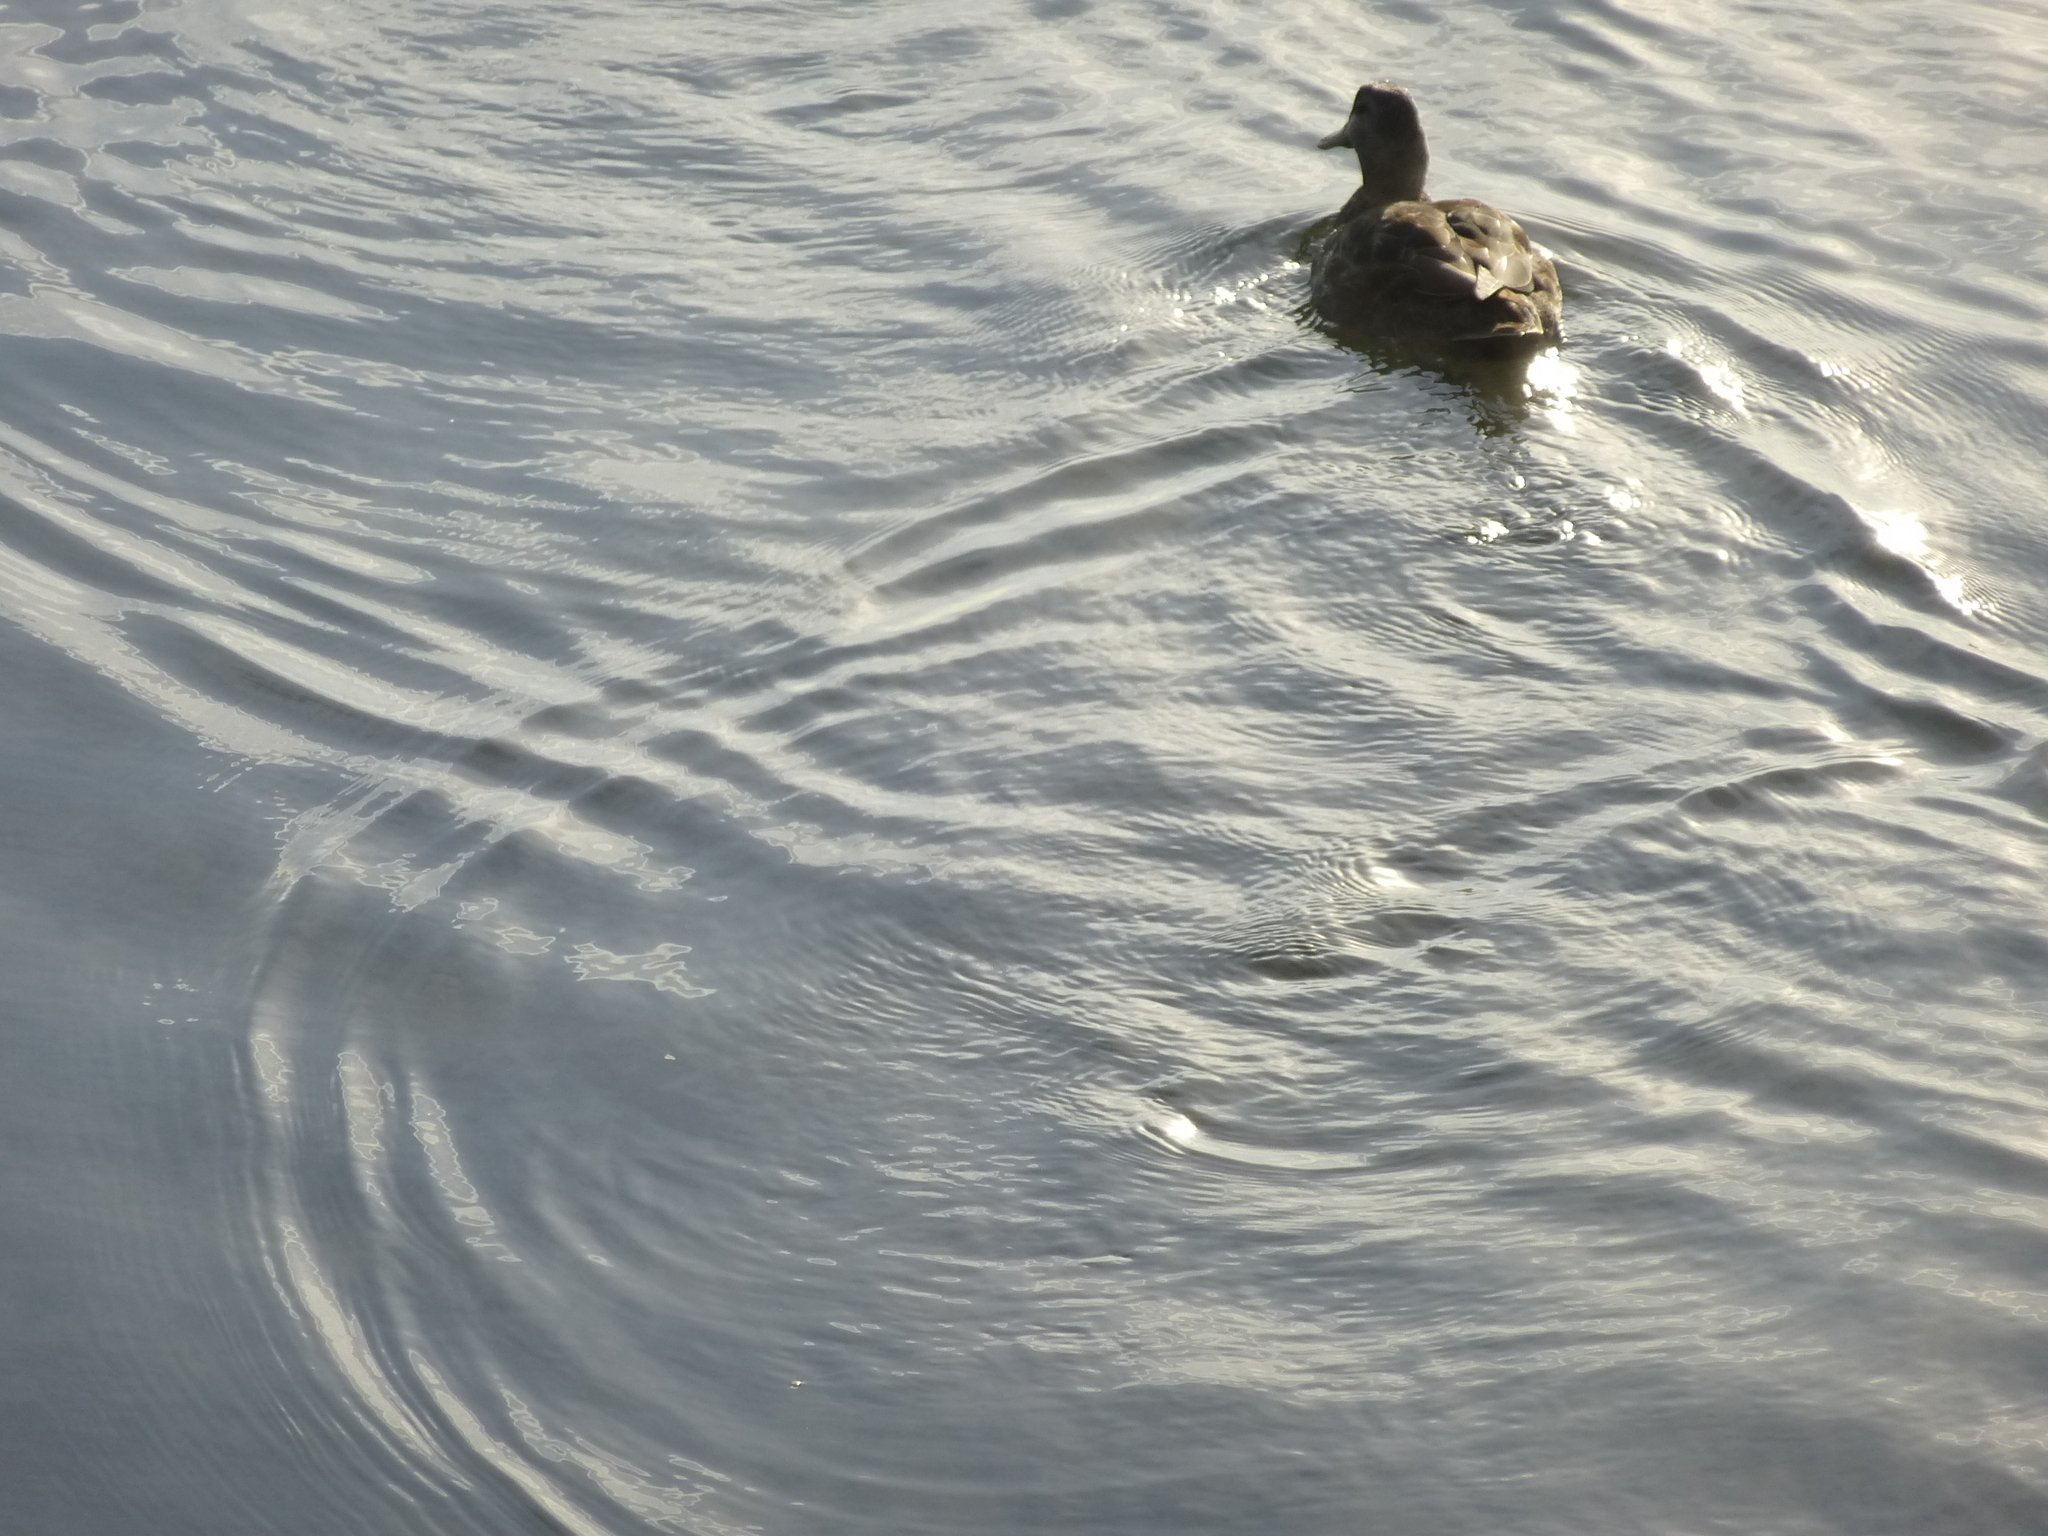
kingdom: Animalia
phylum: Chordata
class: Aves
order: Anseriformes
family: Anatidae
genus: Anas
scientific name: Anas rubripes
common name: American black duck
